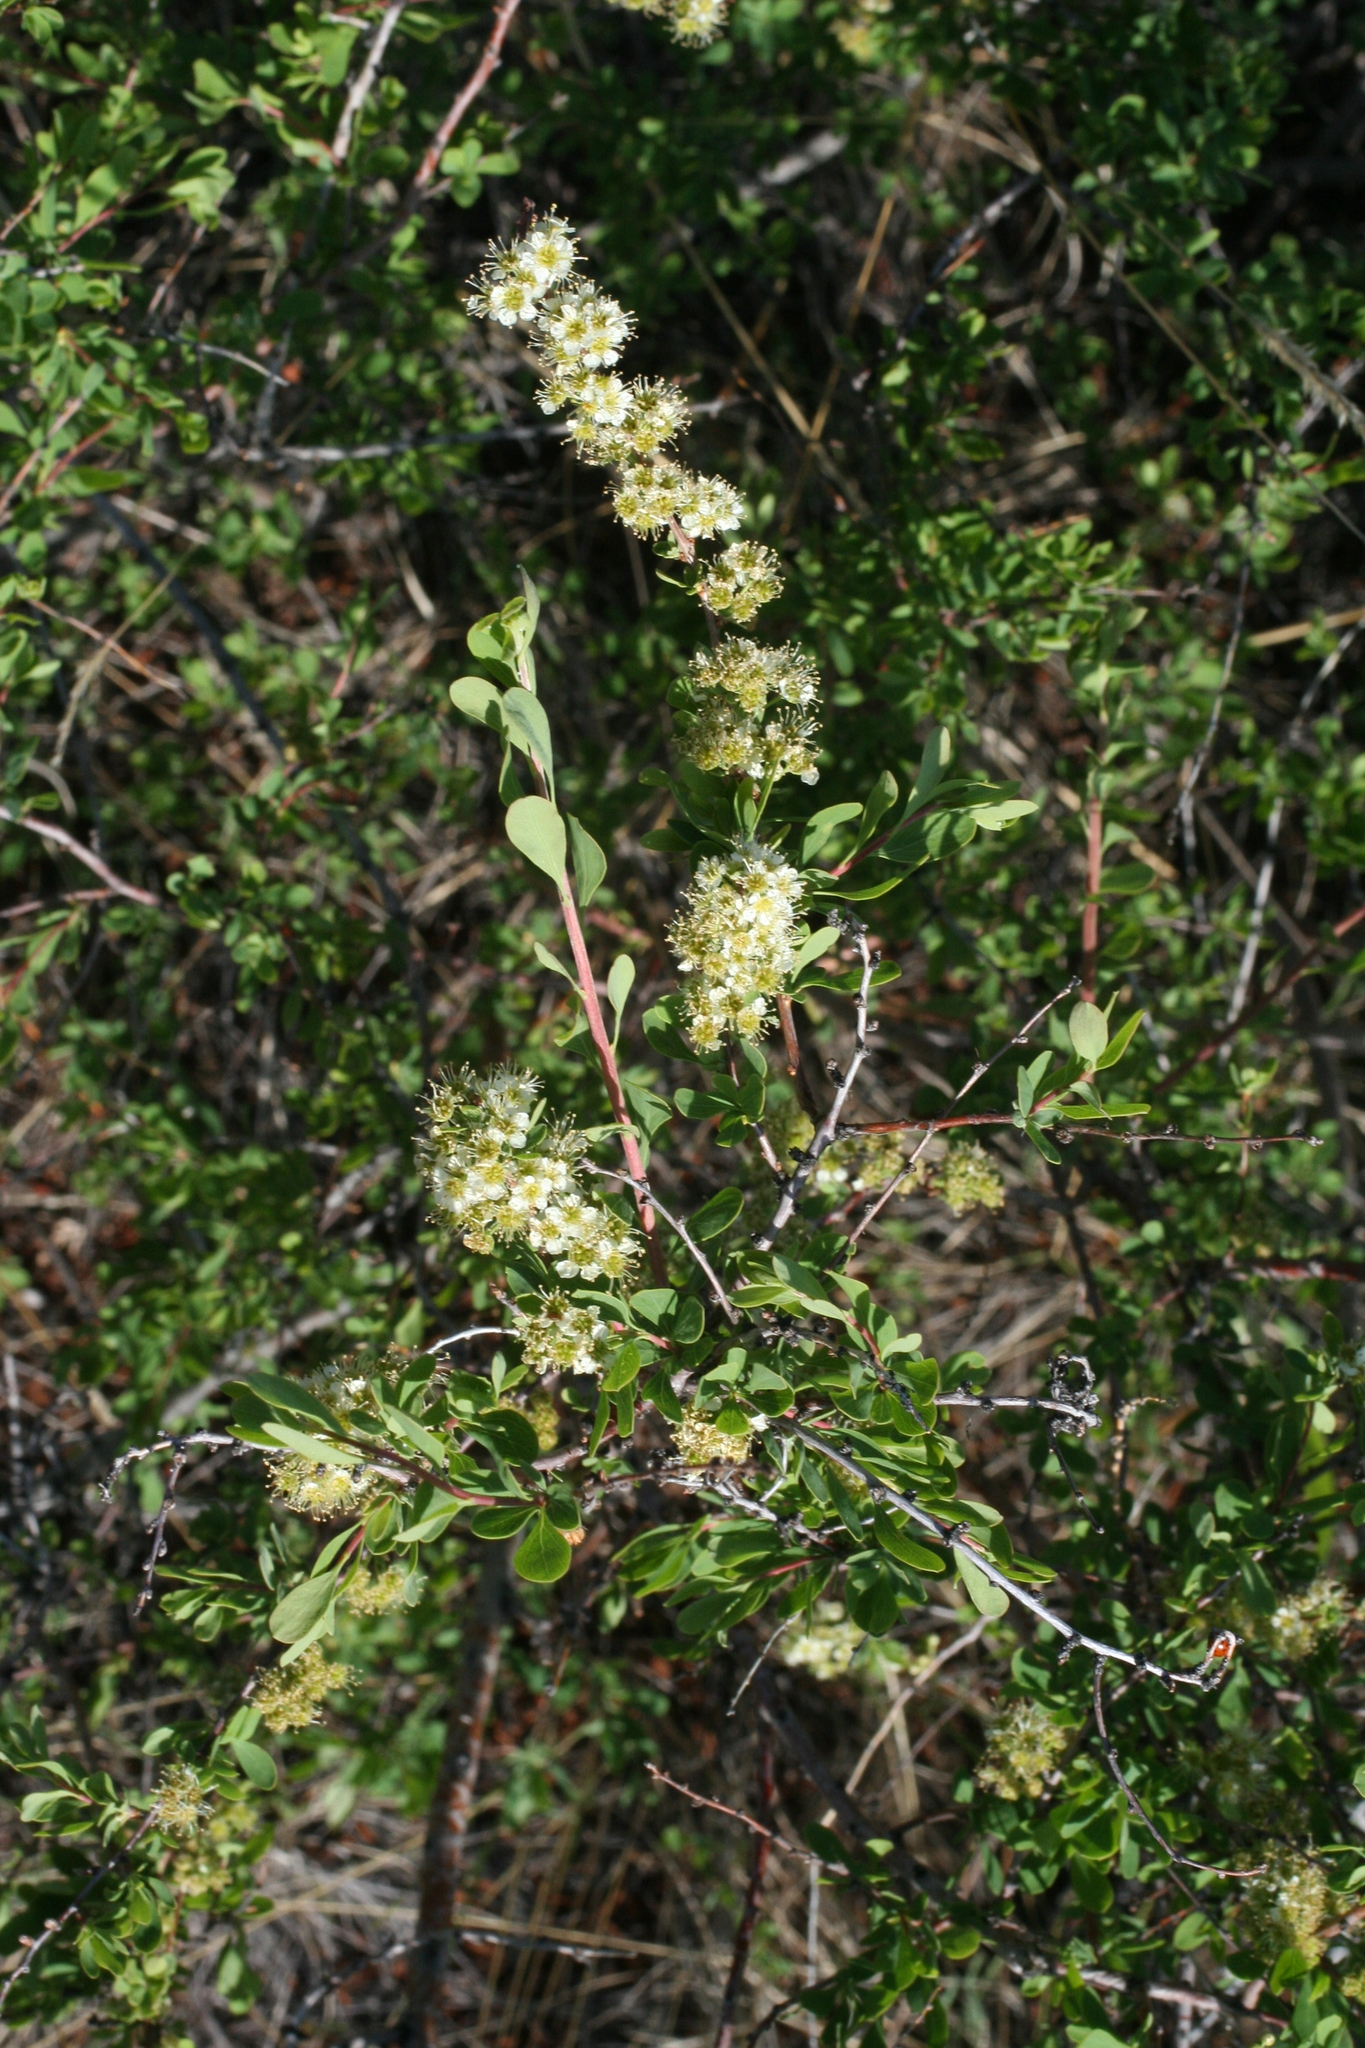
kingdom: Plantae
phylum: Tracheophyta
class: Magnoliopsida
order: Rosales
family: Rosaceae
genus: Spiraea
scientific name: Spiraea hypericifolia
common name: Iberian spirea
